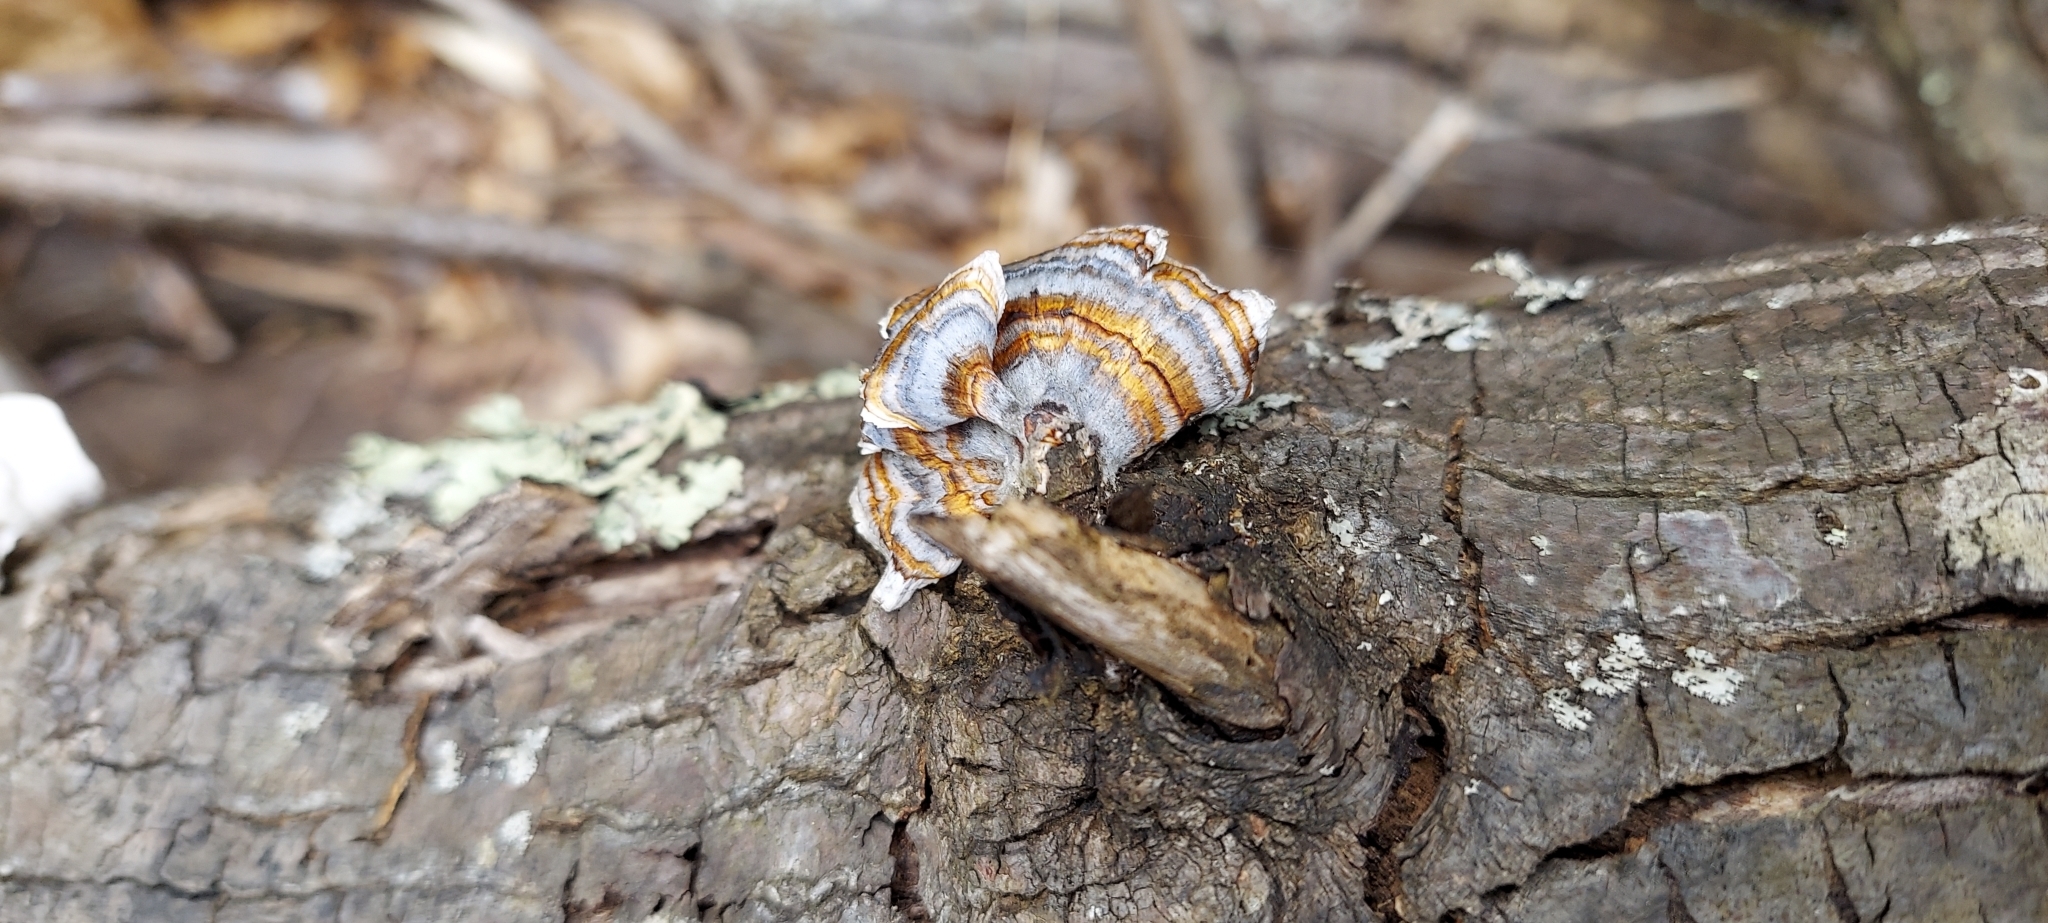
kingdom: Fungi
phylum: Basidiomycota
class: Agaricomycetes
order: Polyporales
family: Polyporaceae
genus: Trametes
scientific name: Trametes versicolor
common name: Turkeytail
